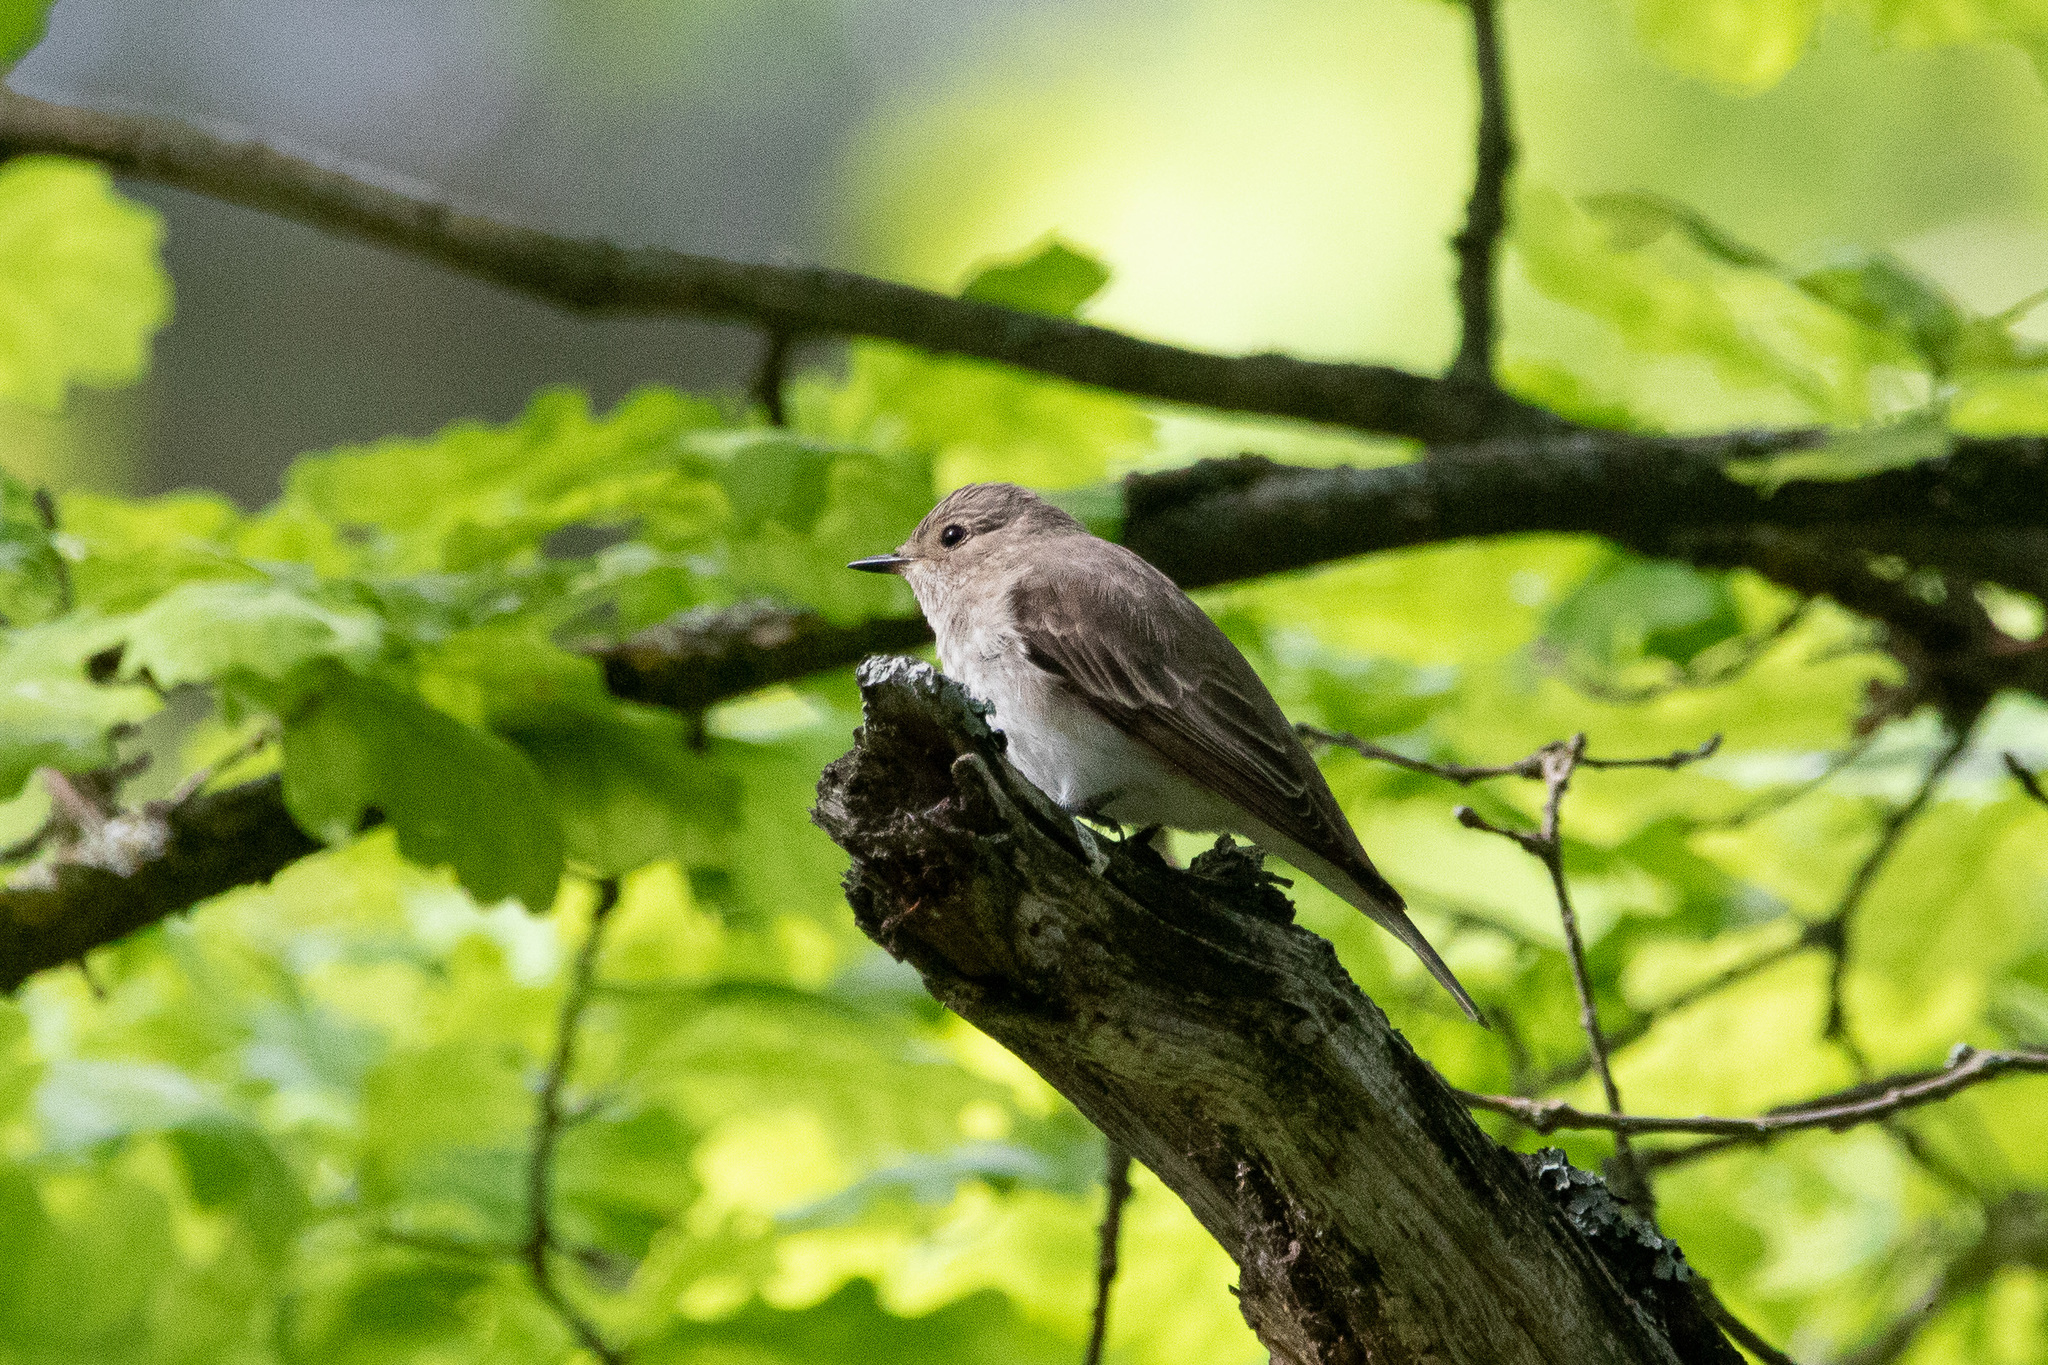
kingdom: Animalia
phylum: Chordata
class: Aves
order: Passeriformes
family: Muscicapidae
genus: Muscicapa
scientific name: Muscicapa striata
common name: Spotted flycatcher
